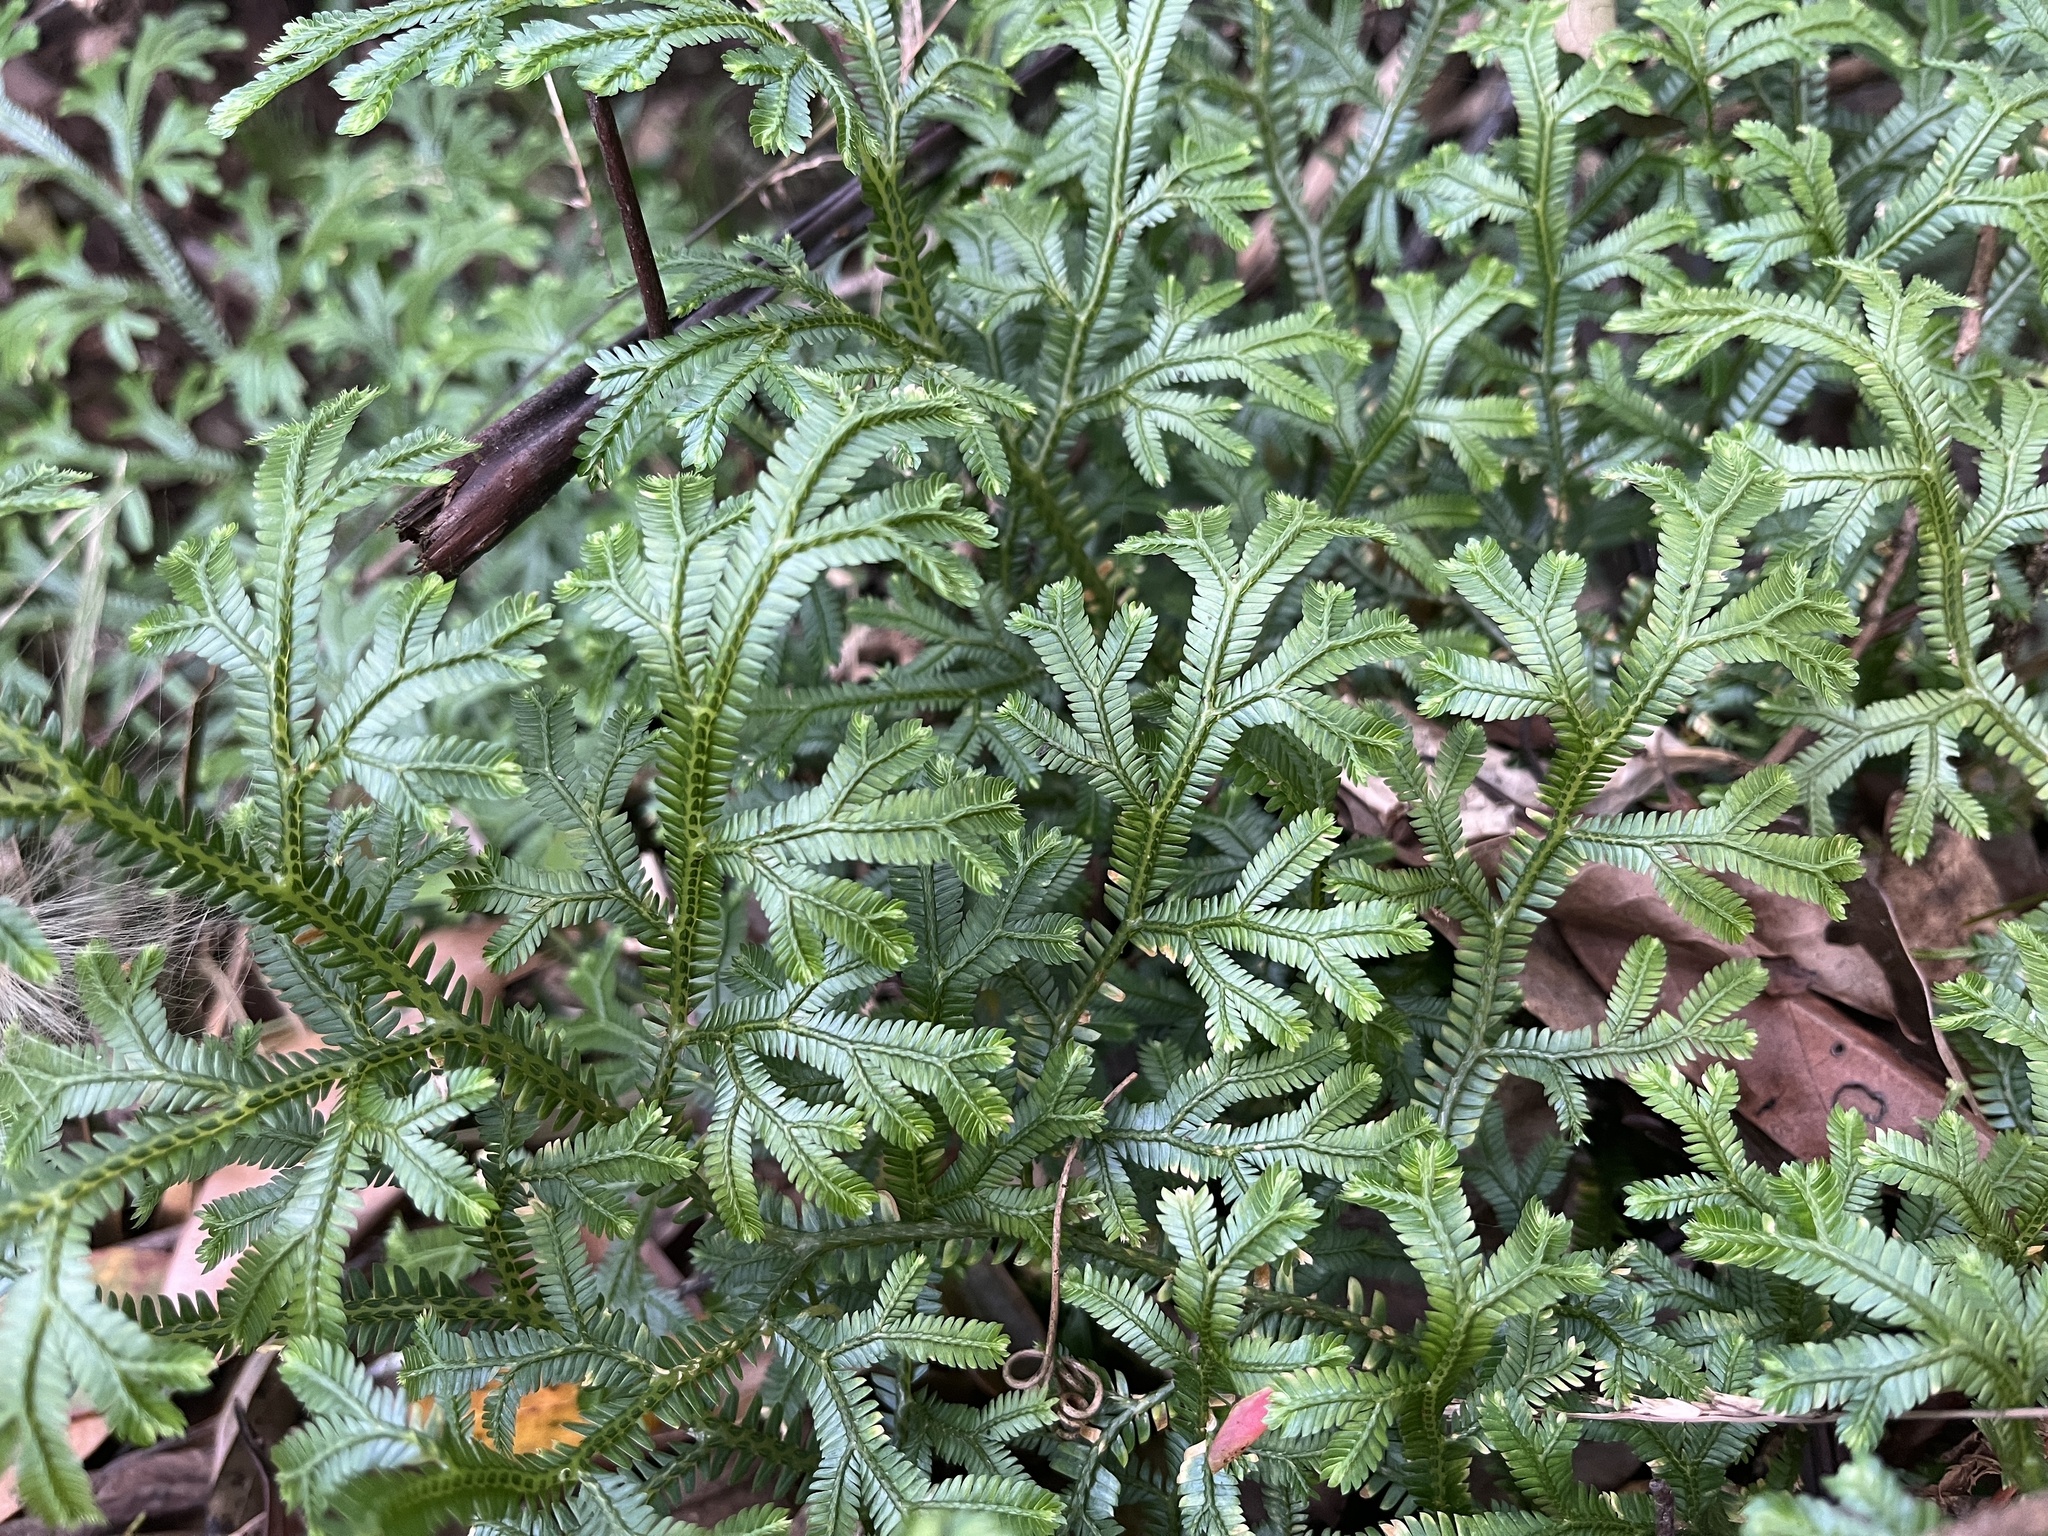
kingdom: Plantae
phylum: Tracheophyta
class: Lycopodiopsida
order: Selaginellales
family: Selaginellaceae
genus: Selaginella
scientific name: Selaginella doederleinii
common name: Greater selaginella
